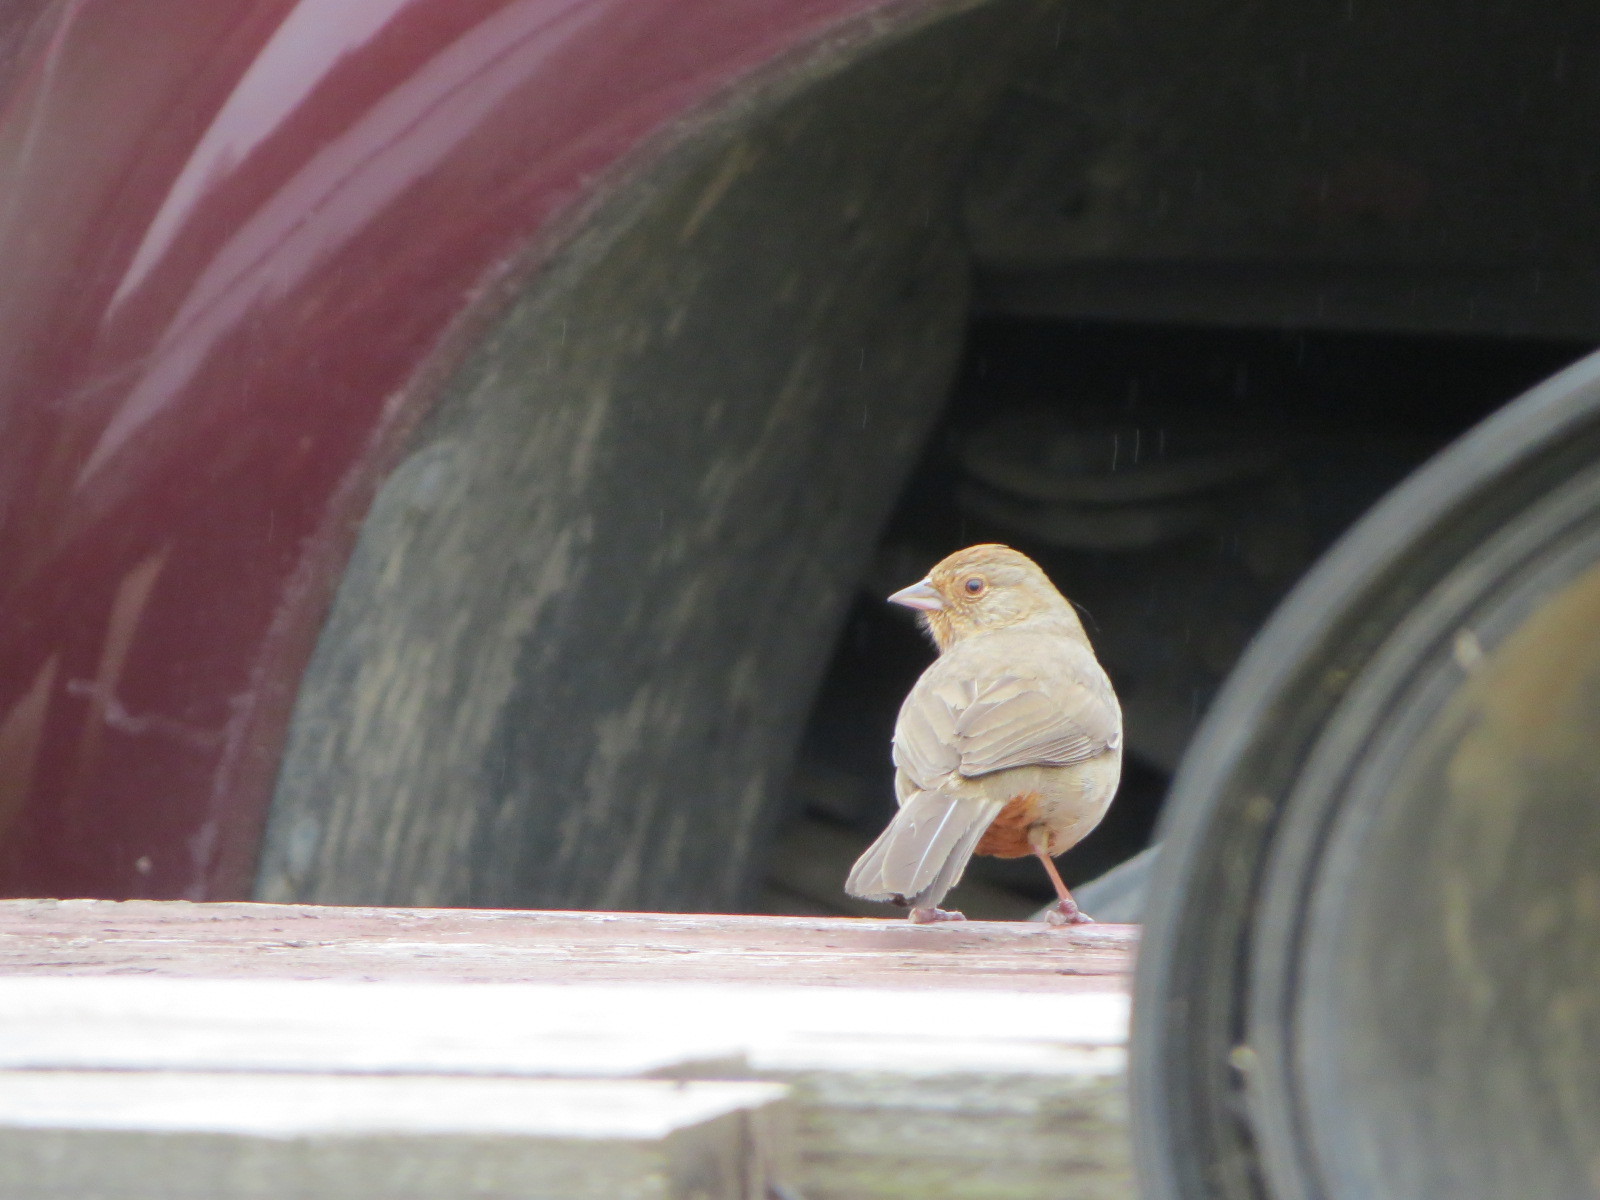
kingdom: Animalia
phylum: Chordata
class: Aves
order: Passeriformes
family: Passerellidae
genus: Melozone
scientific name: Melozone crissalis
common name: California towhee
